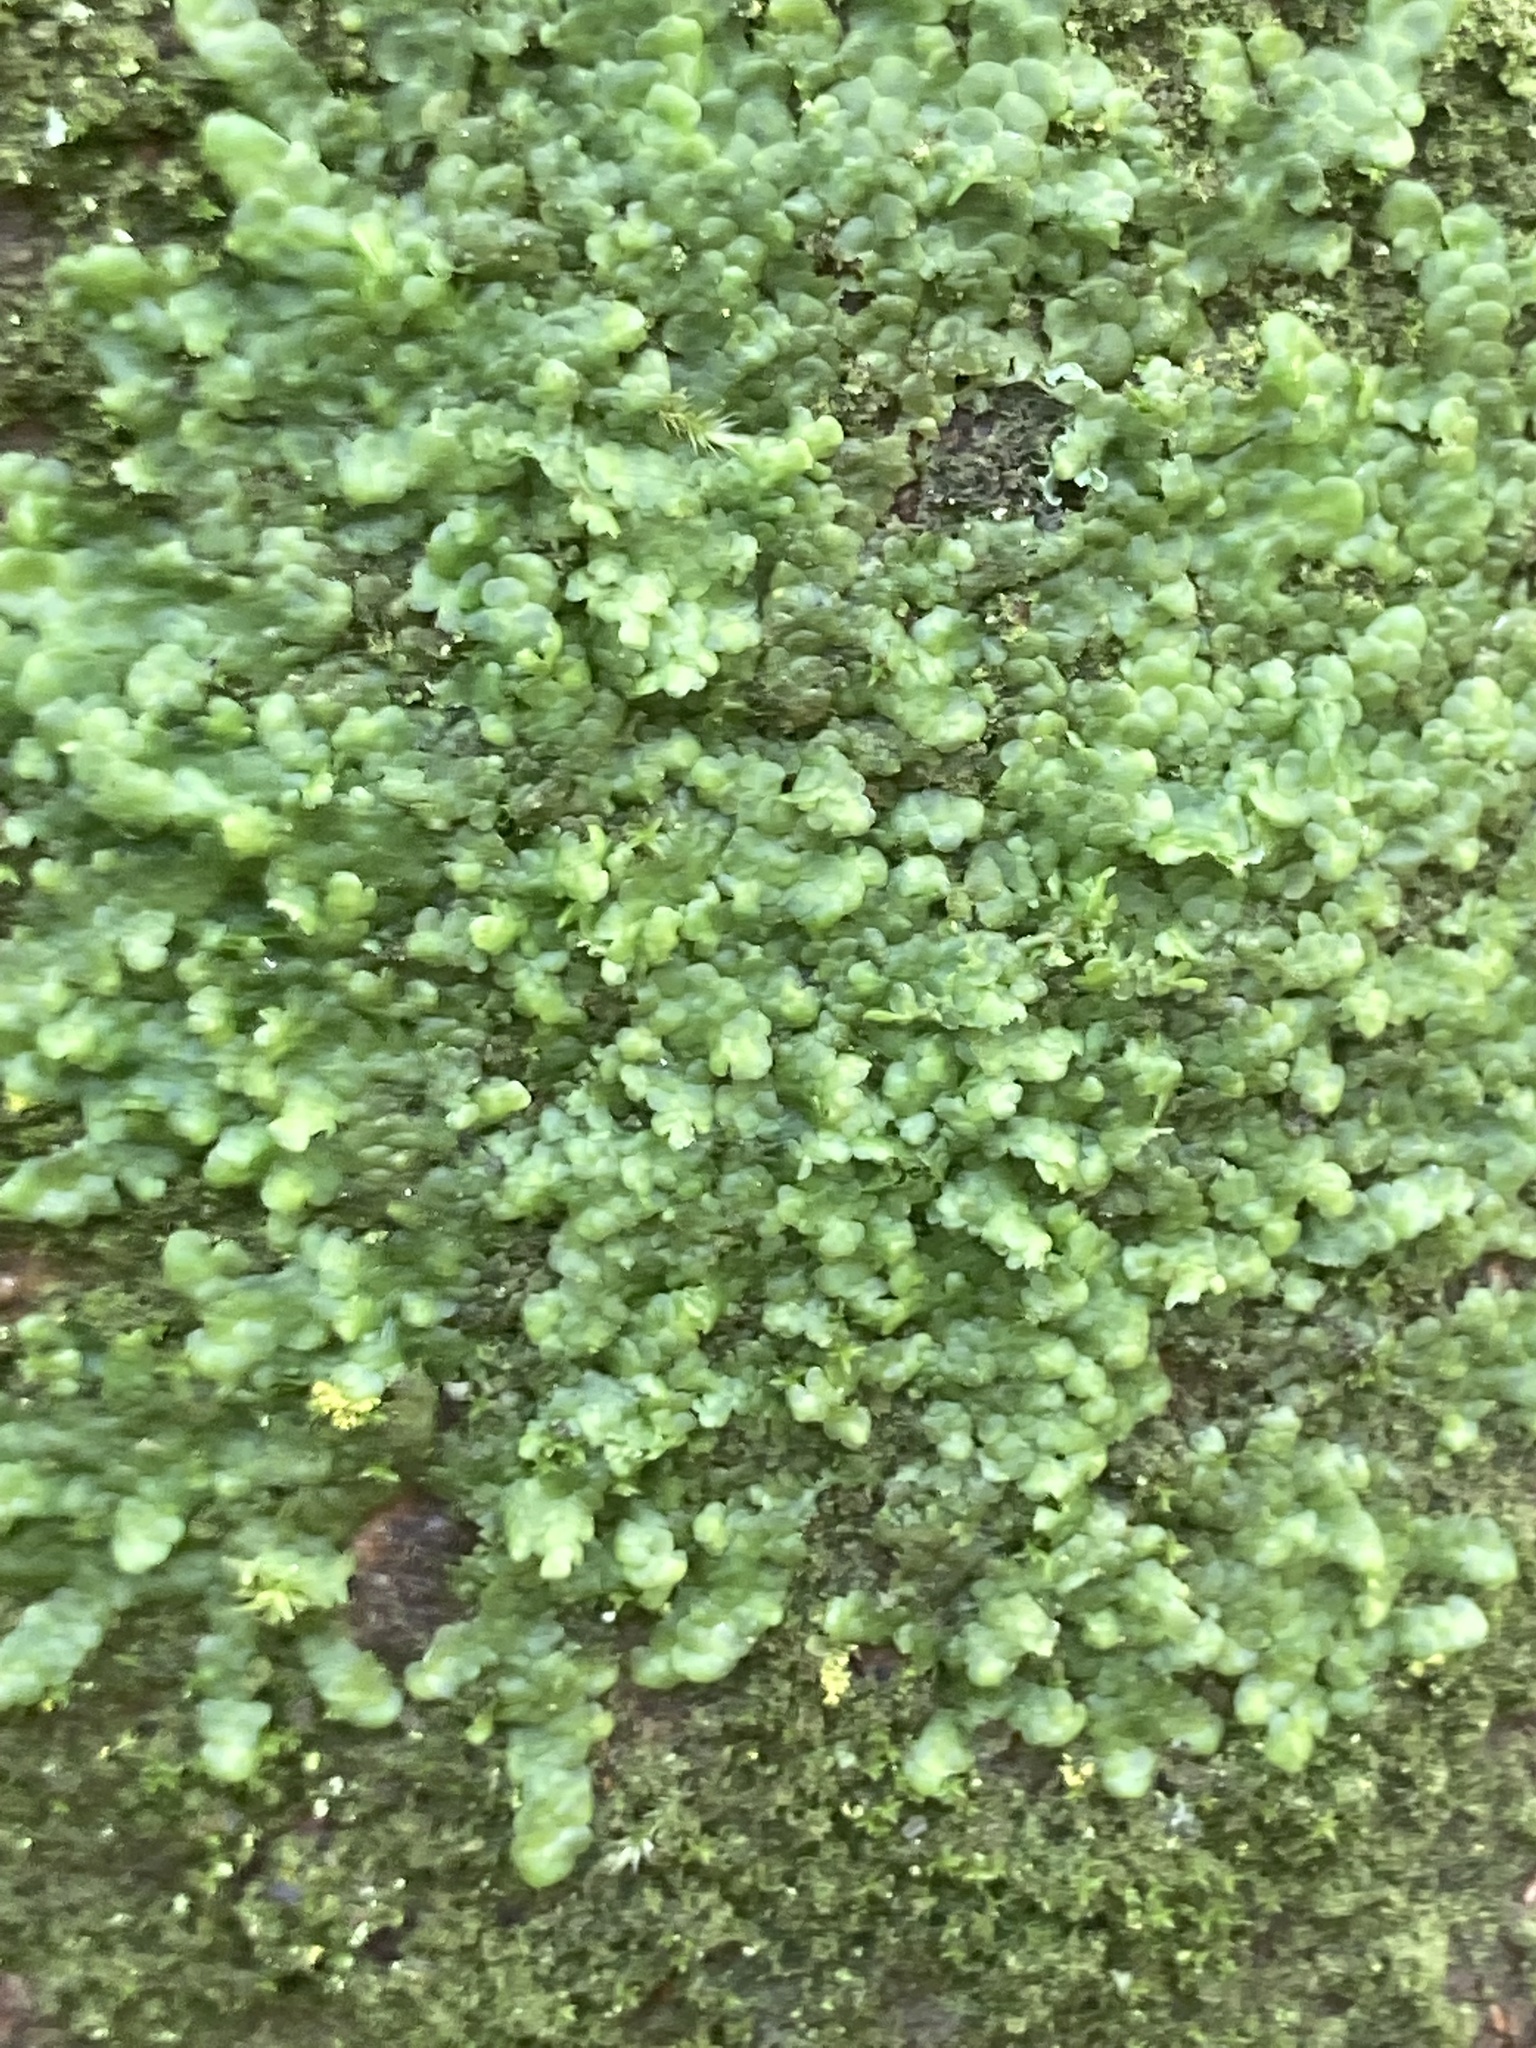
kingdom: Plantae
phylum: Marchantiophyta
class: Jungermanniopsida
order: Porellales
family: Radulaceae
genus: Radula
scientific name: Radula complanata
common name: Flat-leaved scalewort
